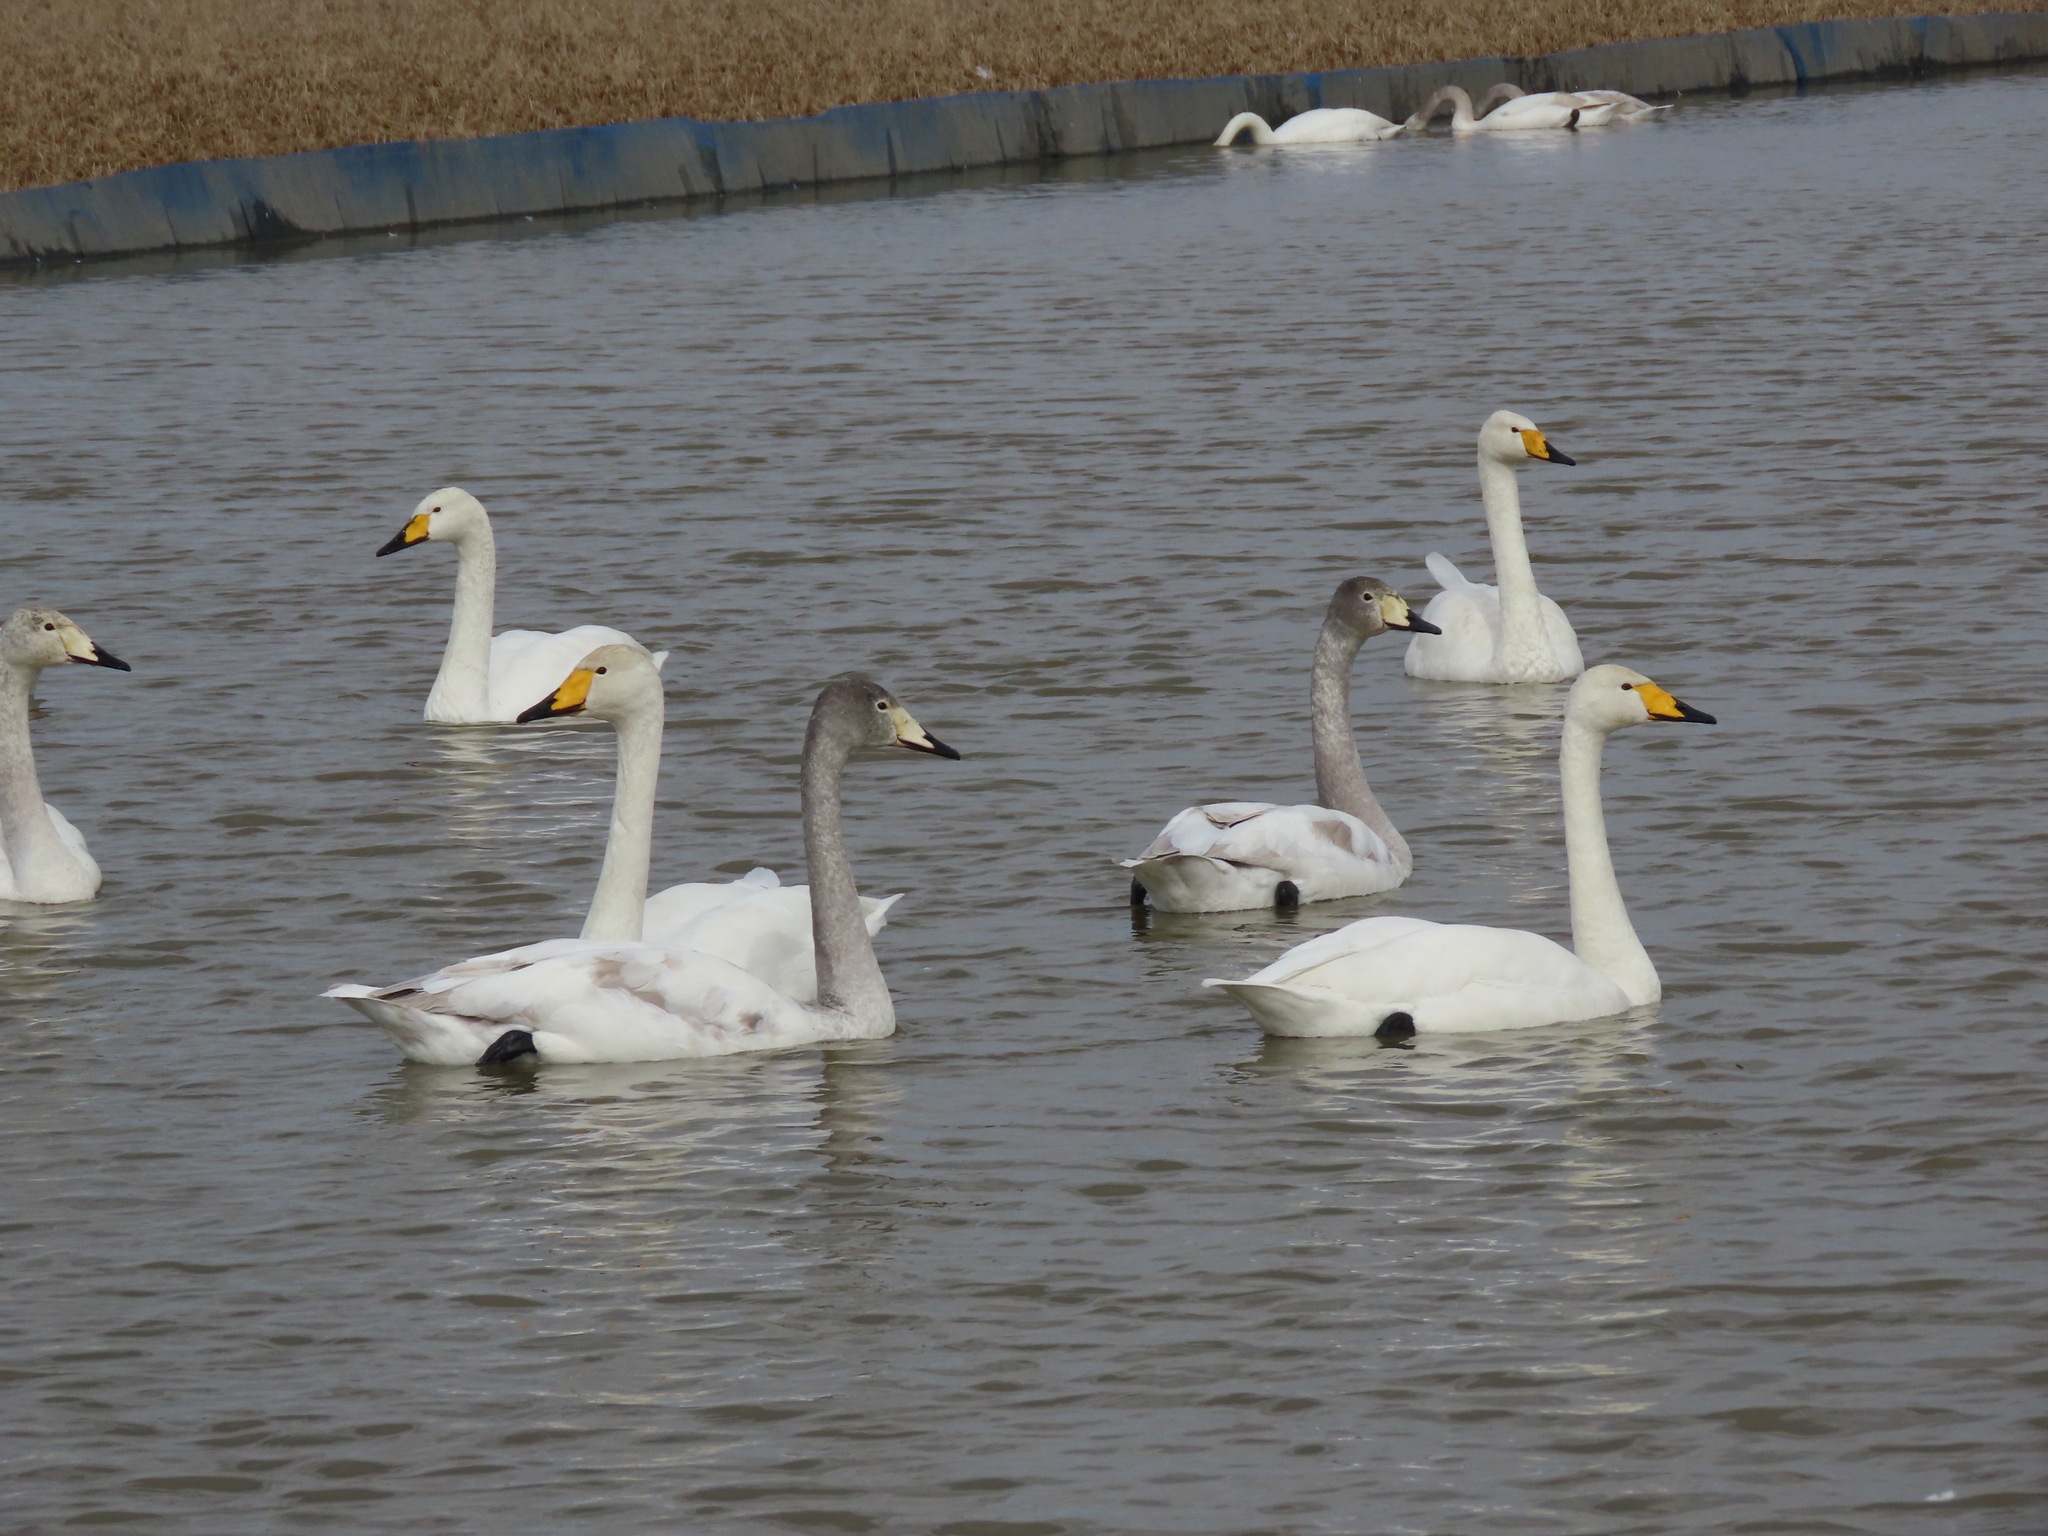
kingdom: Animalia
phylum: Chordata
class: Aves
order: Anseriformes
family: Anatidae
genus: Cygnus
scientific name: Cygnus cygnus
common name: Whooper swan
